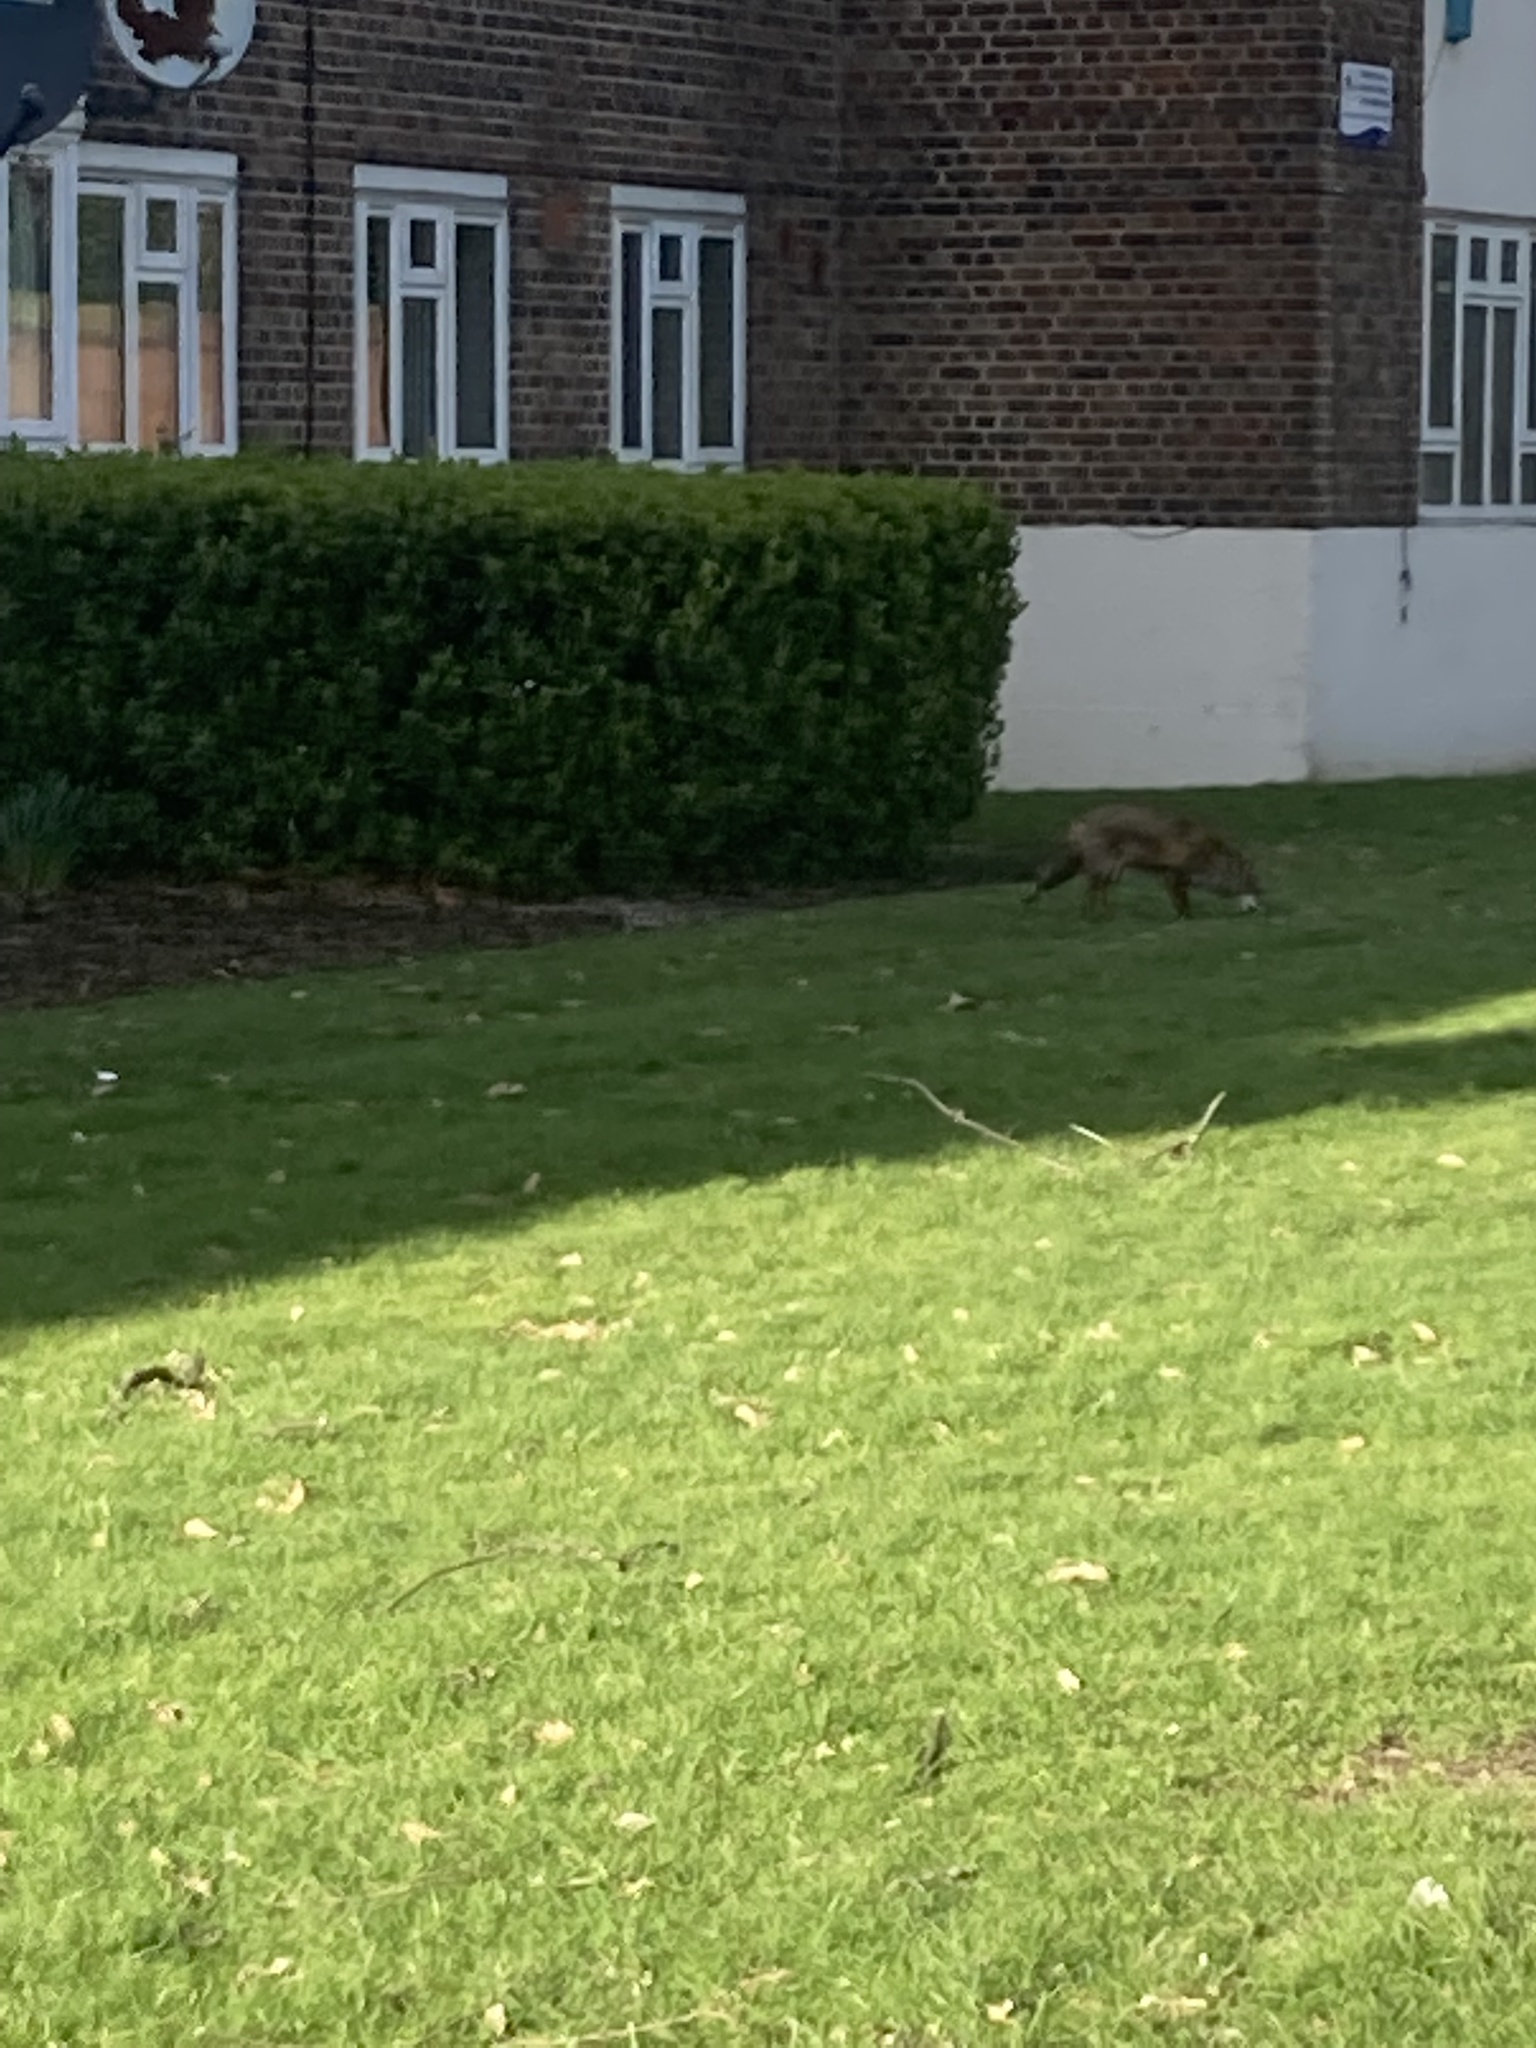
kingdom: Animalia
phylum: Chordata
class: Mammalia
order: Carnivora
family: Canidae
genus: Vulpes
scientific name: Vulpes vulpes
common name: Red fox
